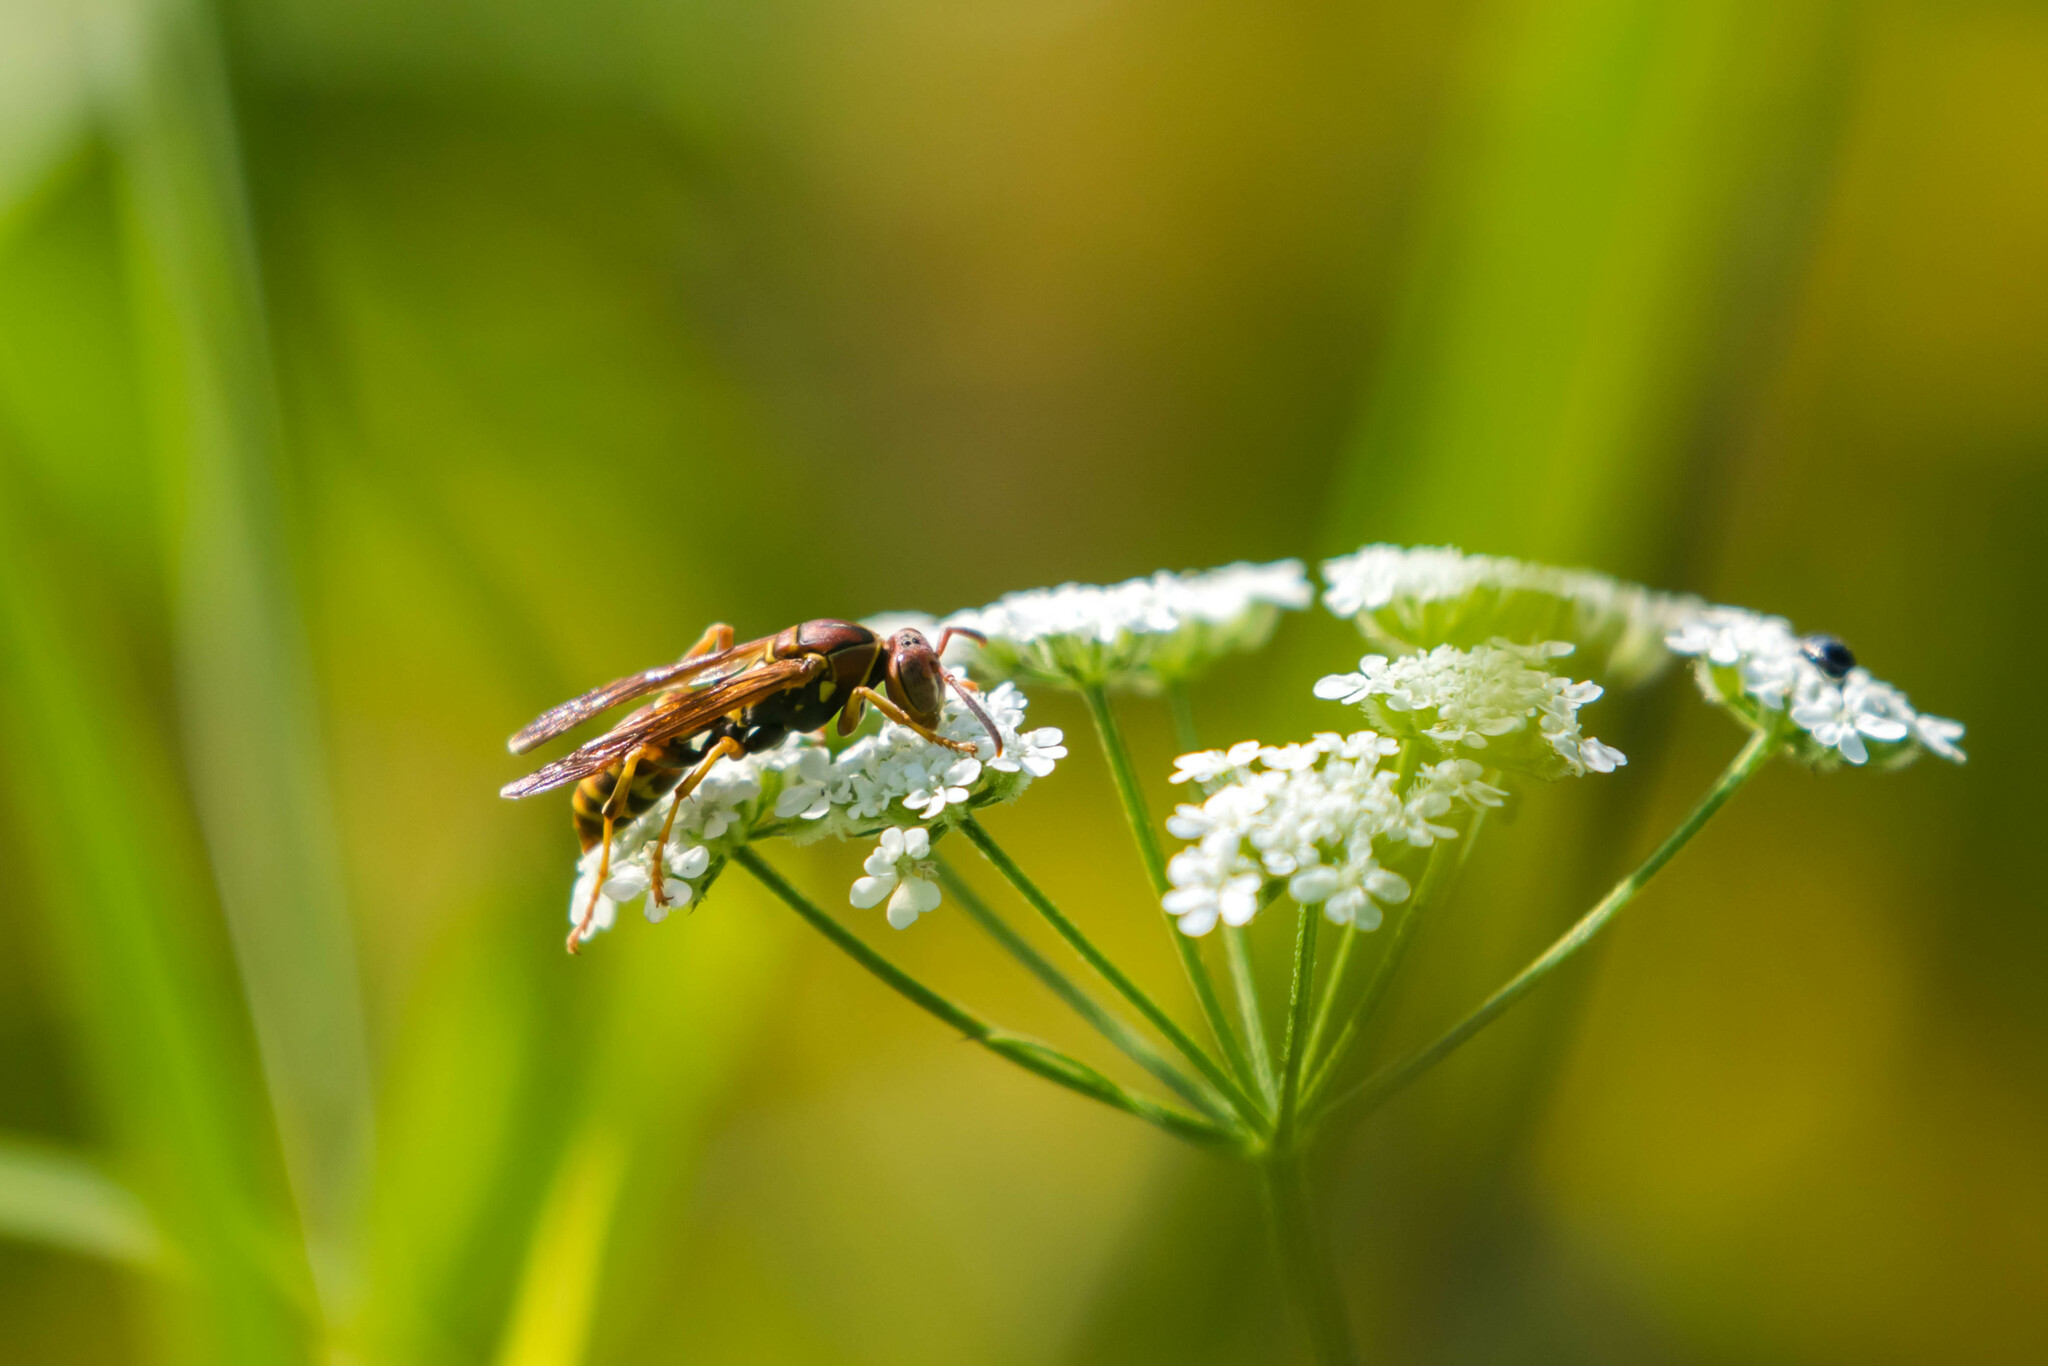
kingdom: Animalia
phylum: Arthropoda
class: Insecta
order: Hymenoptera
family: Eumenidae
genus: Polistes
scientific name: Polistes dorsalis
